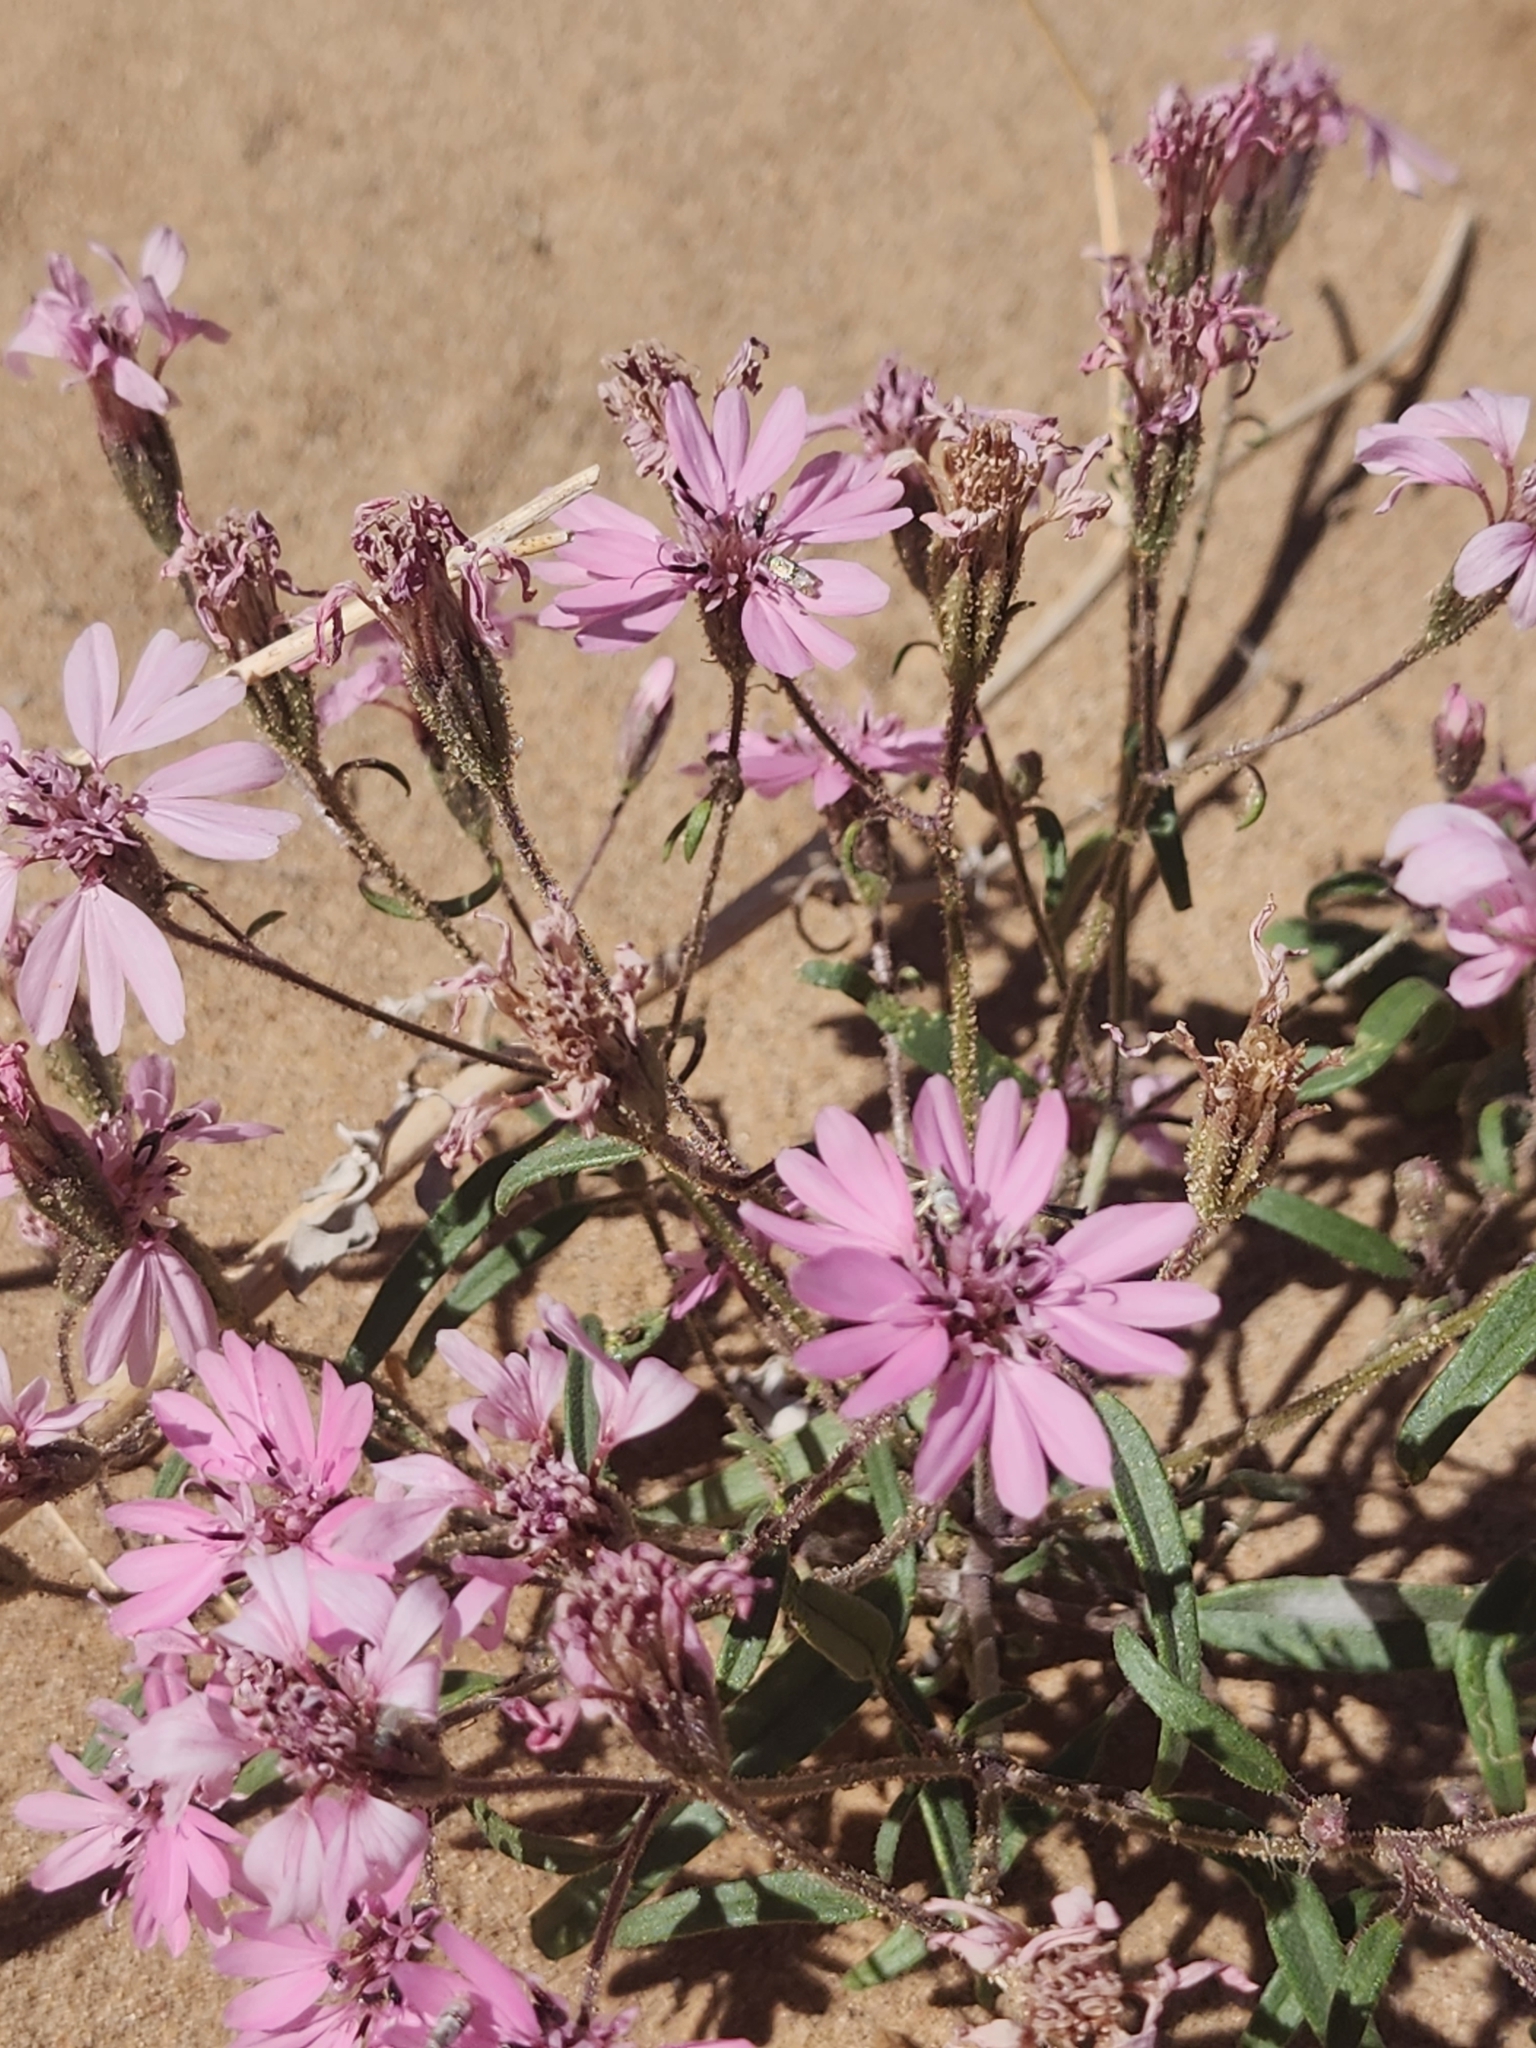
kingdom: Plantae
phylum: Tracheophyta
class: Magnoliopsida
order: Asterales
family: Asteraceae
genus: Palafoxia
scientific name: Palafoxia sphacelata
